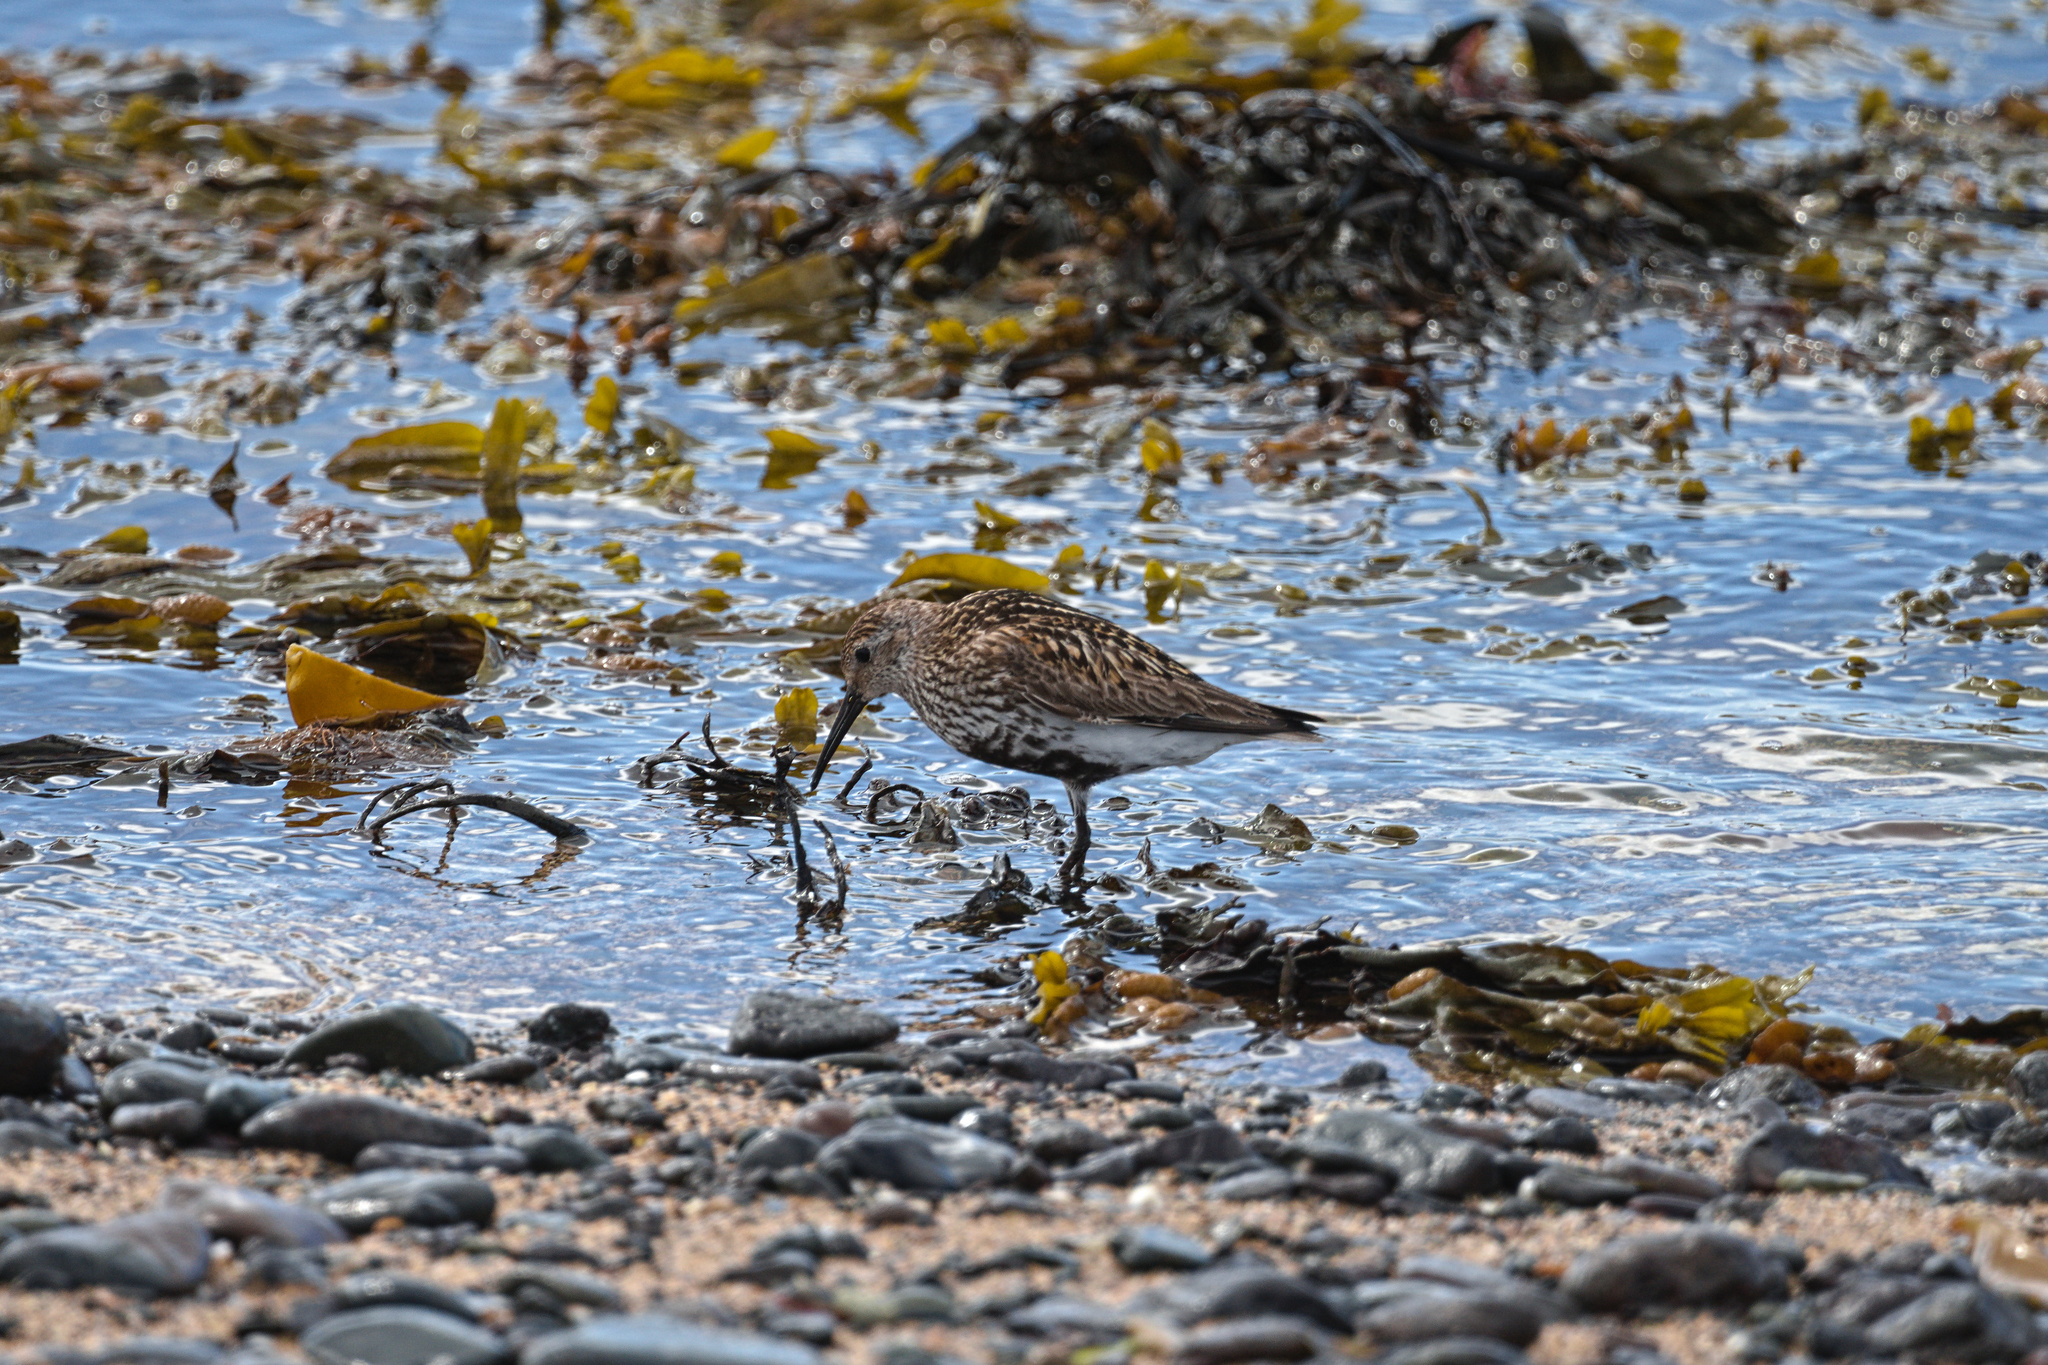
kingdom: Animalia
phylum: Chordata
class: Aves
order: Charadriiformes
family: Scolopacidae
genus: Calidris
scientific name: Calidris alpina
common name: Dunlin
